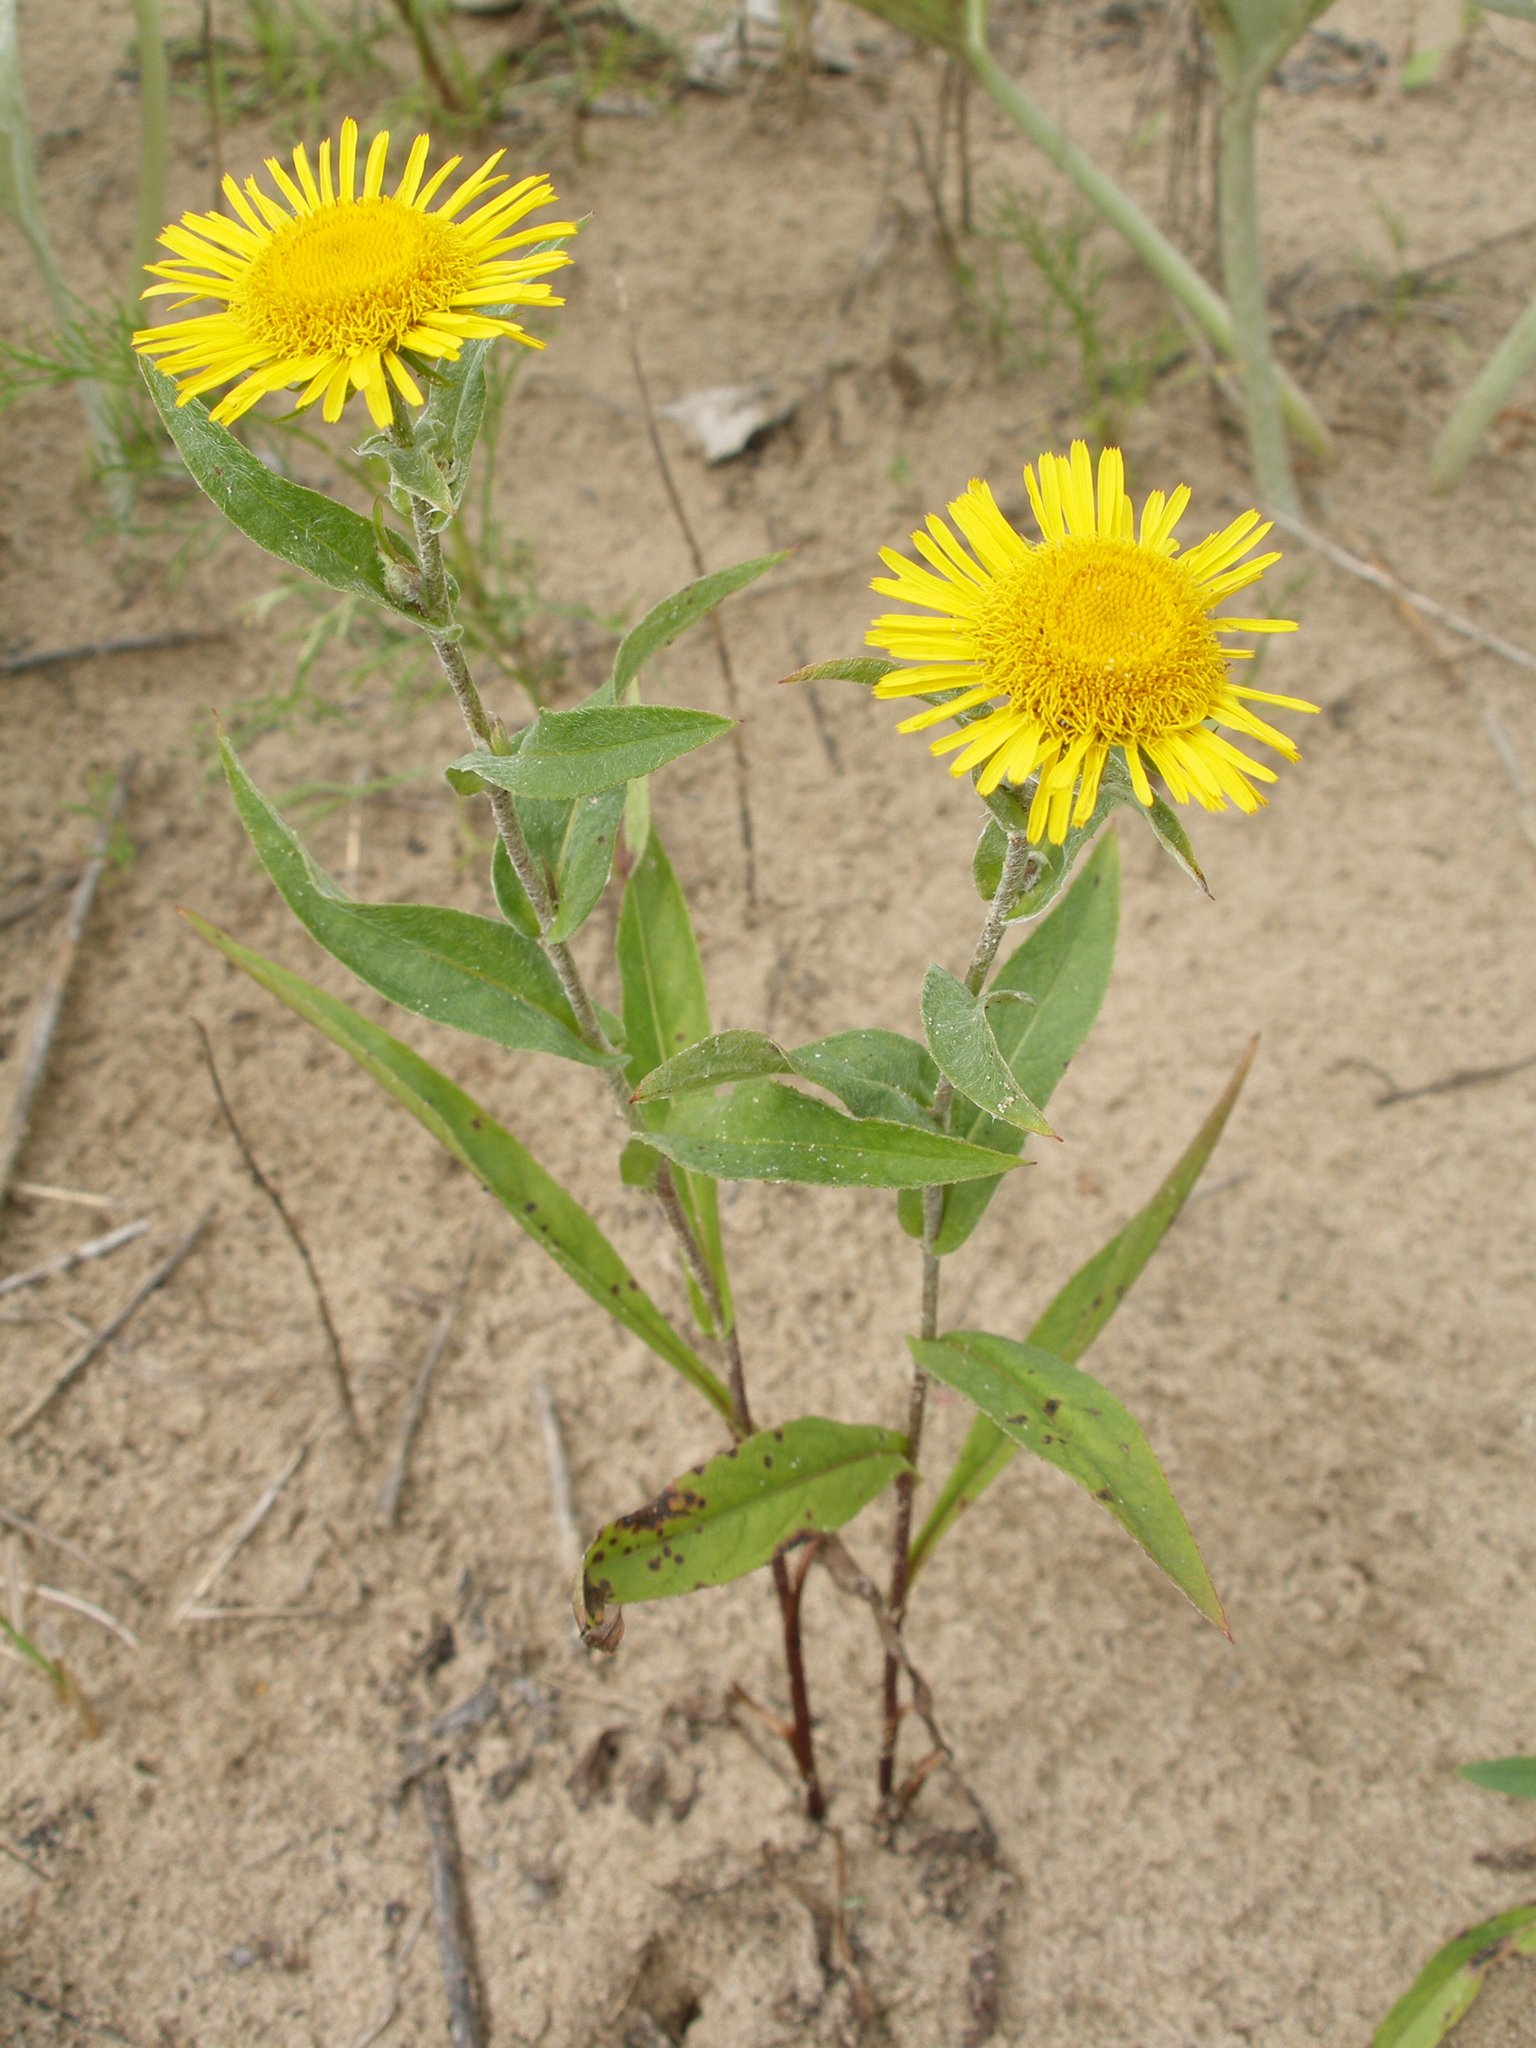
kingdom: Plantae
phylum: Tracheophyta
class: Magnoliopsida
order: Asterales
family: Asteraceae
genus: Pentanema
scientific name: Pentanema britannicum
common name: British elecampane
